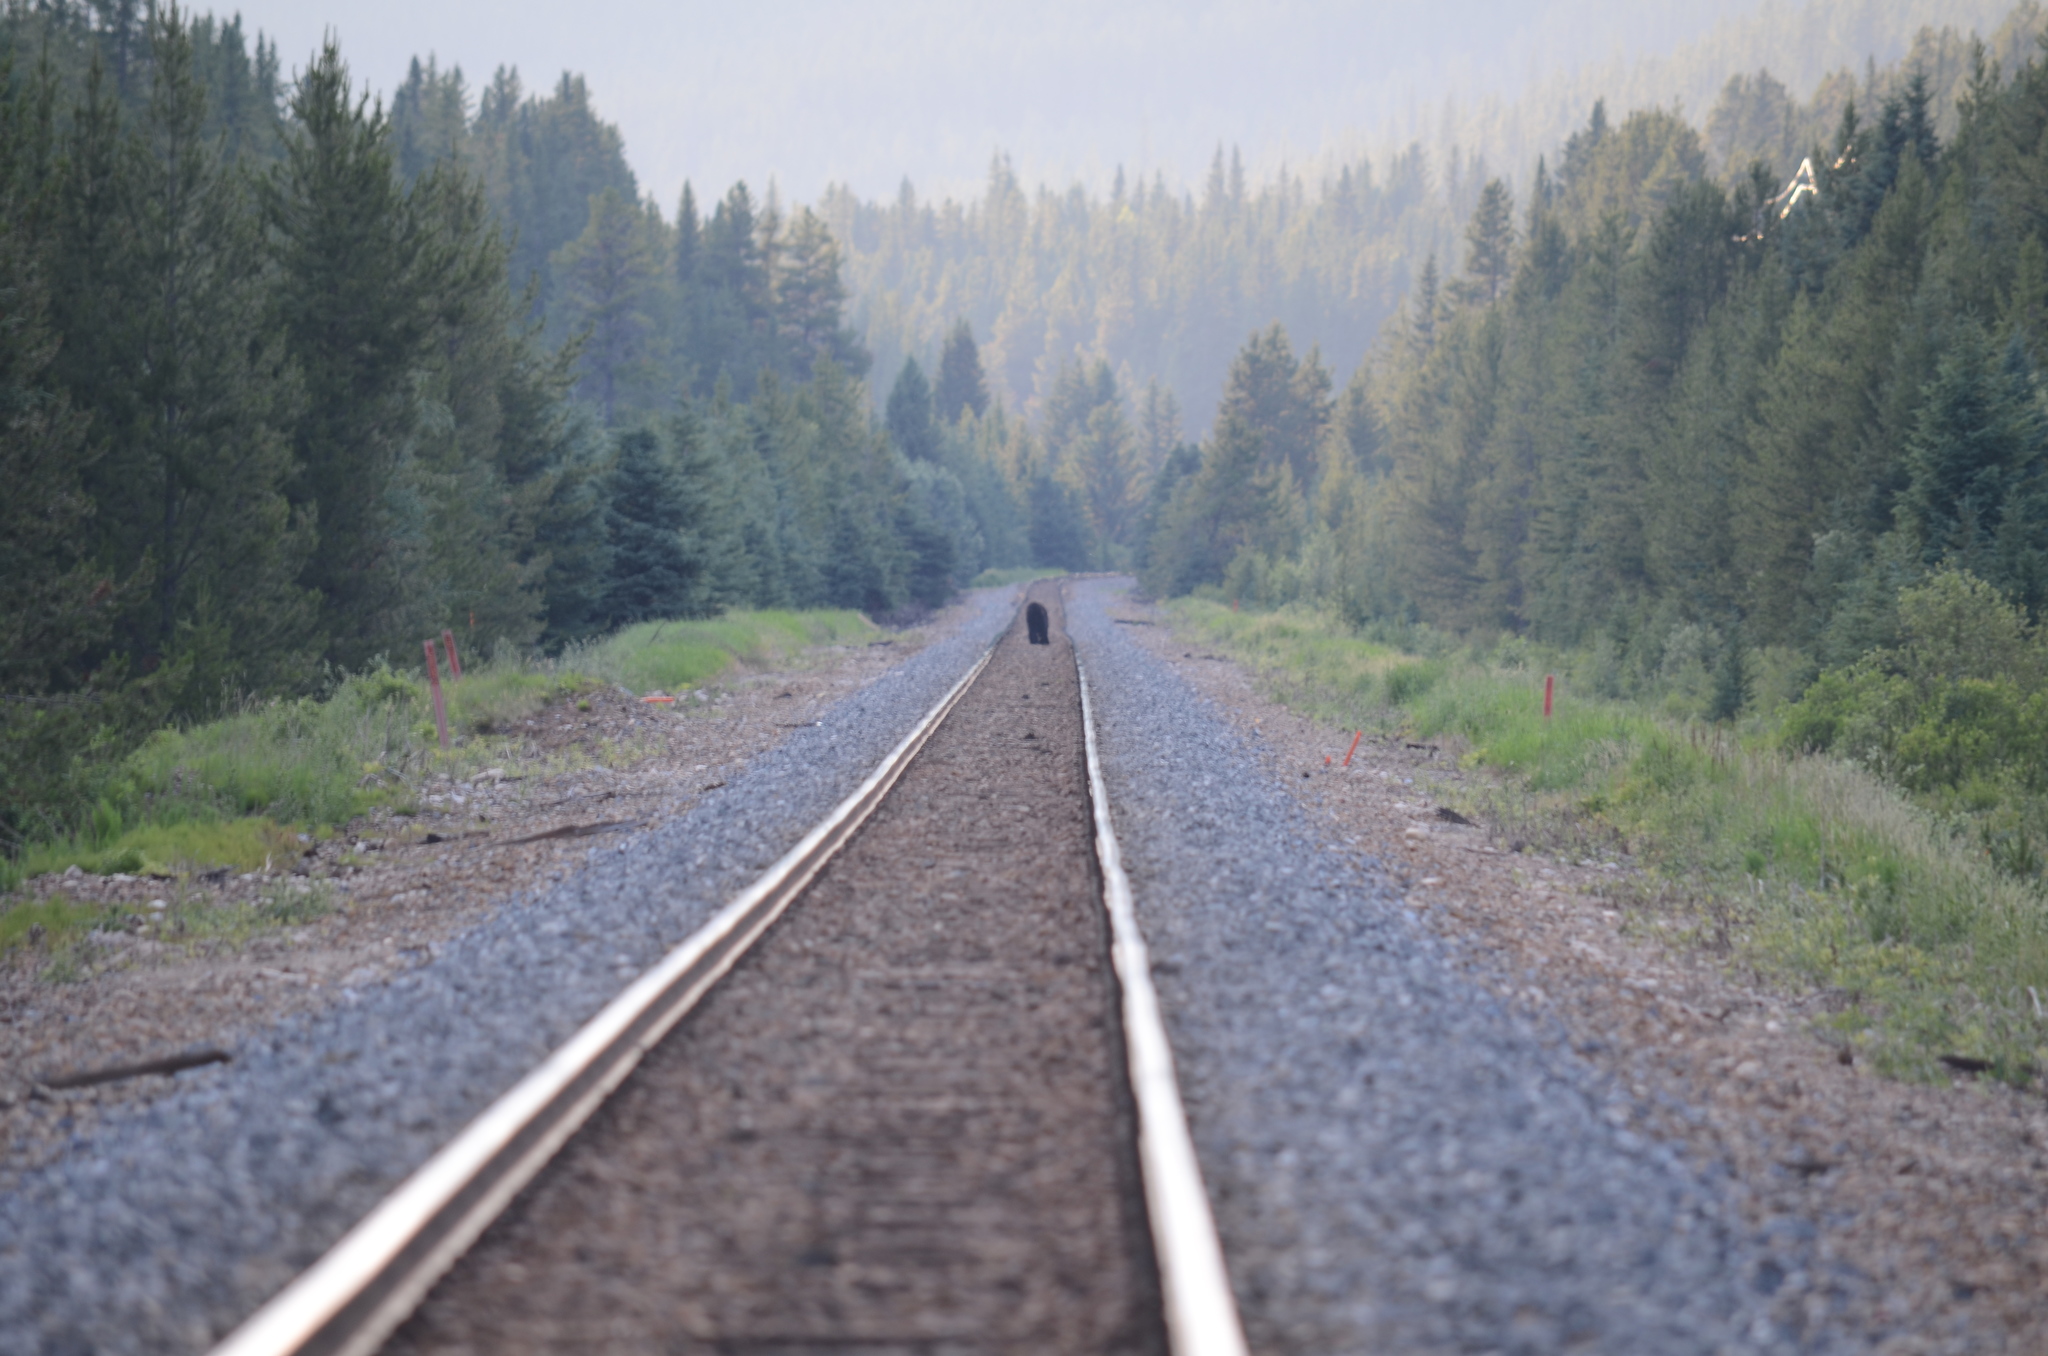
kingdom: Animalia
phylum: Chordata
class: Mammalia
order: Carnivora
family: Ursidae
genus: Ursus
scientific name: Ursus americanus
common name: American black bear
